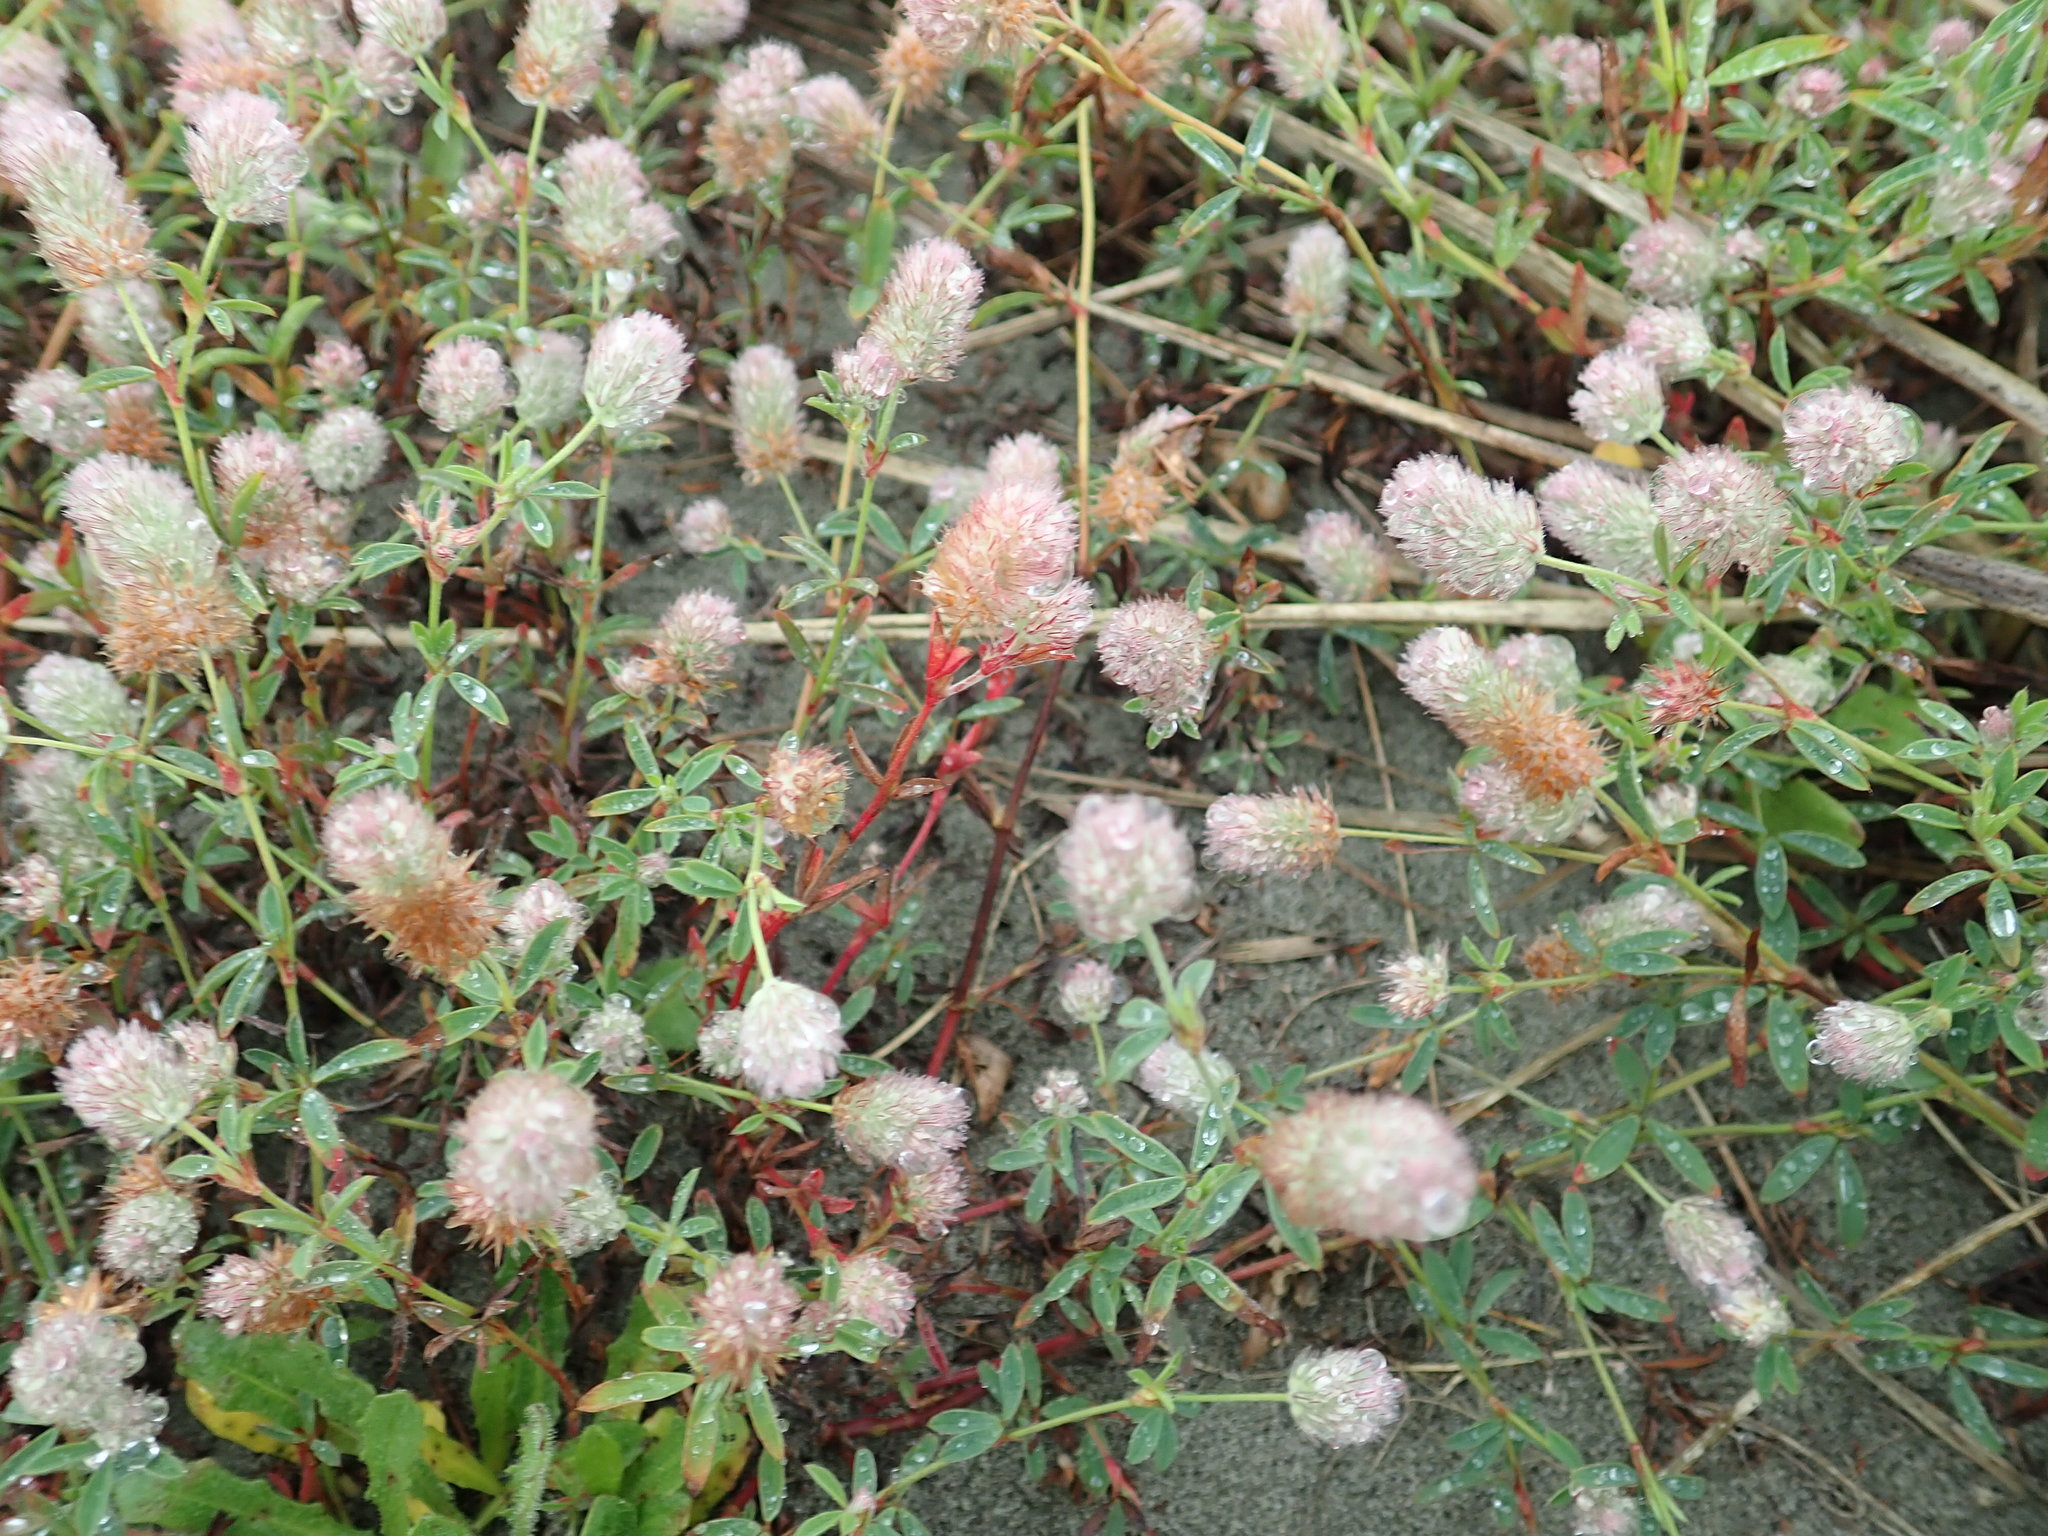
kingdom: Plantae
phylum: Tracheophyta
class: Magnoliopsida
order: Fabales
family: Fabaceae
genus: Trifolium
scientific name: Trifolium arvense
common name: Hare's-foot clover
